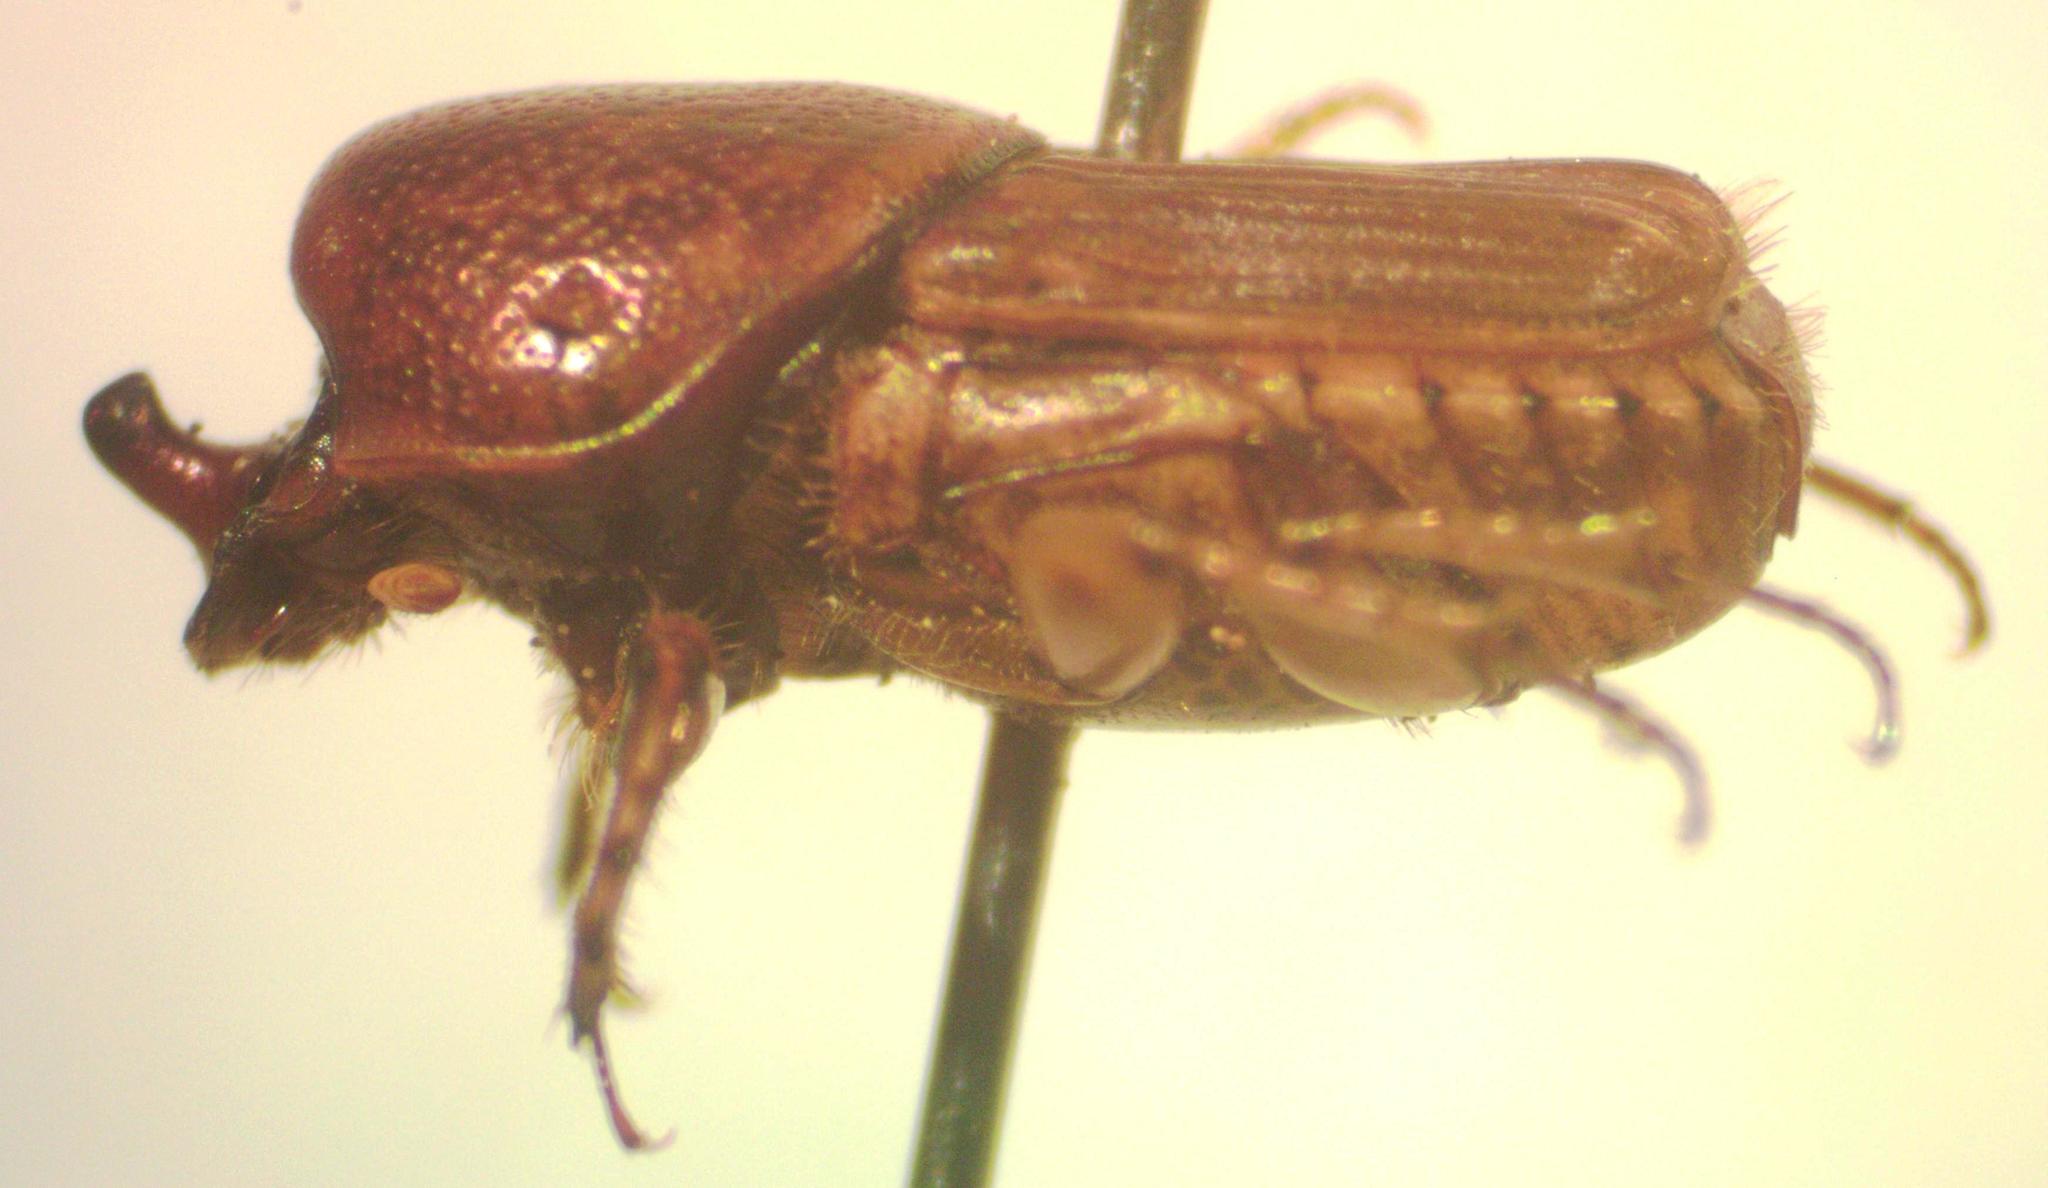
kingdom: Animalia
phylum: Arthropoda
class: Insecta
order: Coleoptera
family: Scarabaeidae
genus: Euoniticellus
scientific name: Euoniticellus intermedius
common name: Intermediate sandy dung beetle
